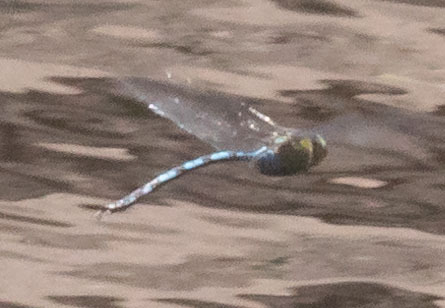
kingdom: Animalia
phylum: Arthropoda
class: Insecta
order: Odonata
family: Aeshnidae
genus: Anax
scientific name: Anax walsinghami
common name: Giant darner
